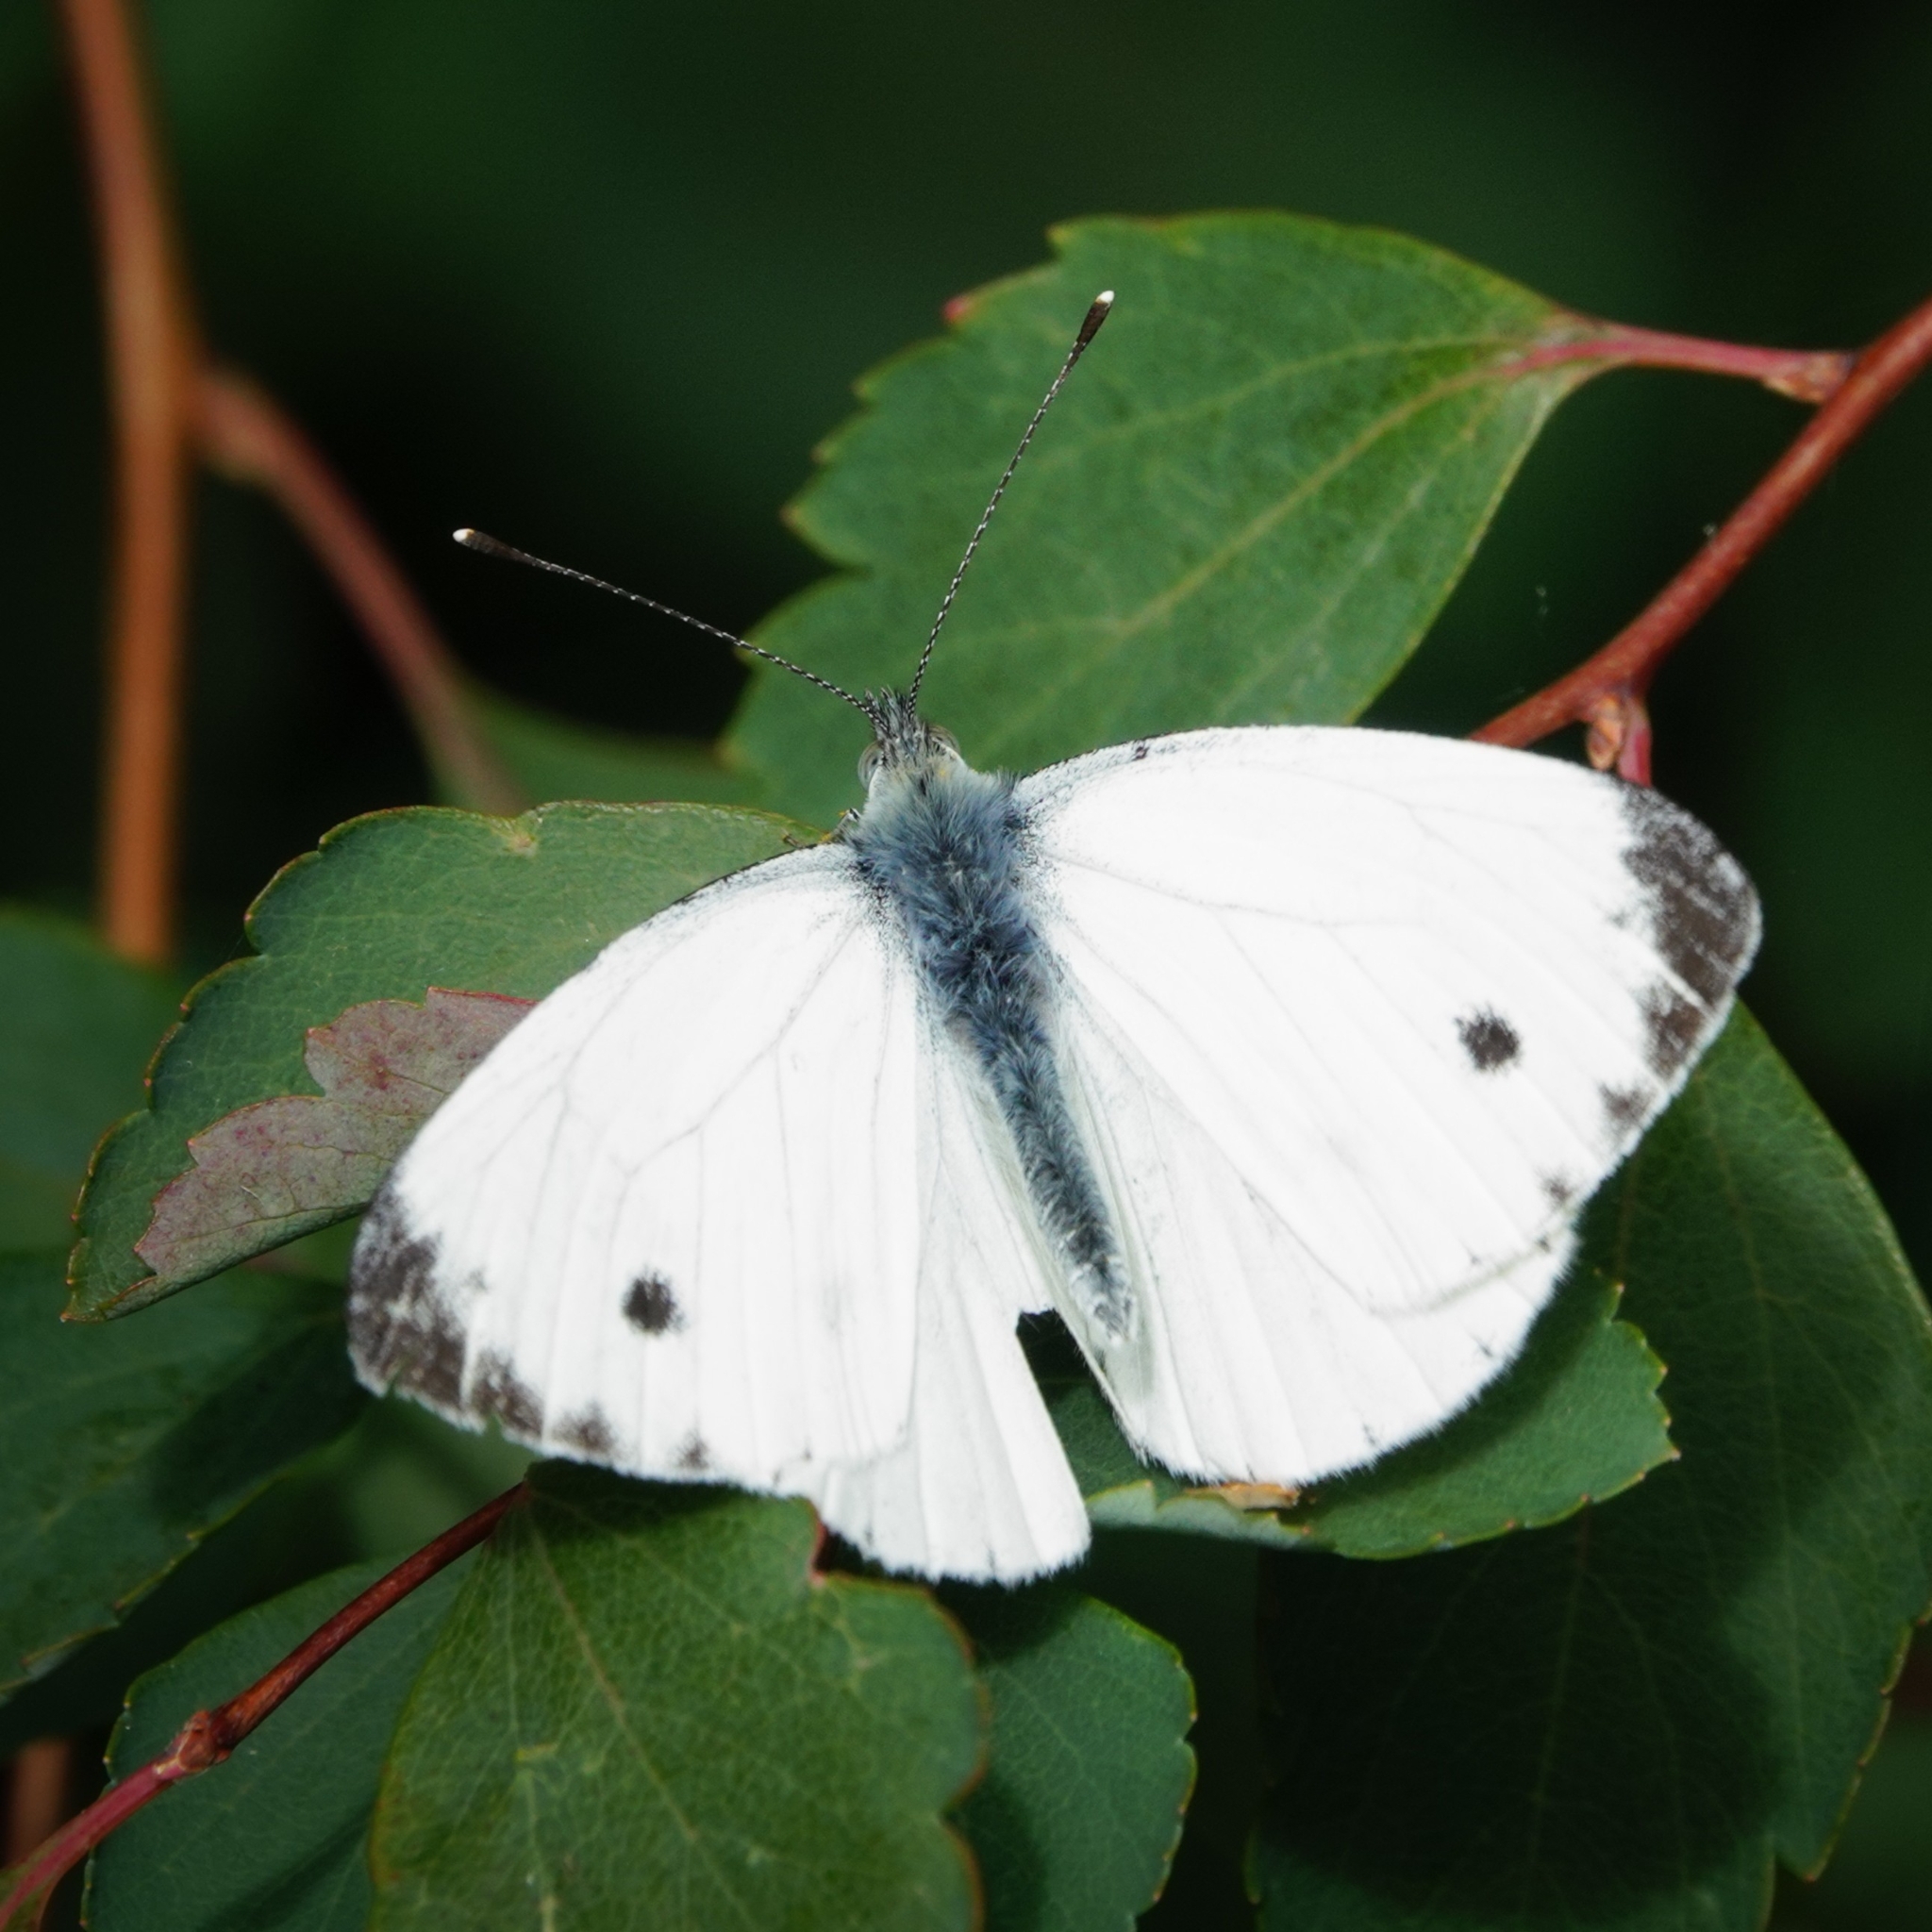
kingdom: Animalia
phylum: Arthropoda
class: Insecta
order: Lepidoptera
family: Pieridae
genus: Pieris
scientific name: Pieris napi
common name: Green-veined white
